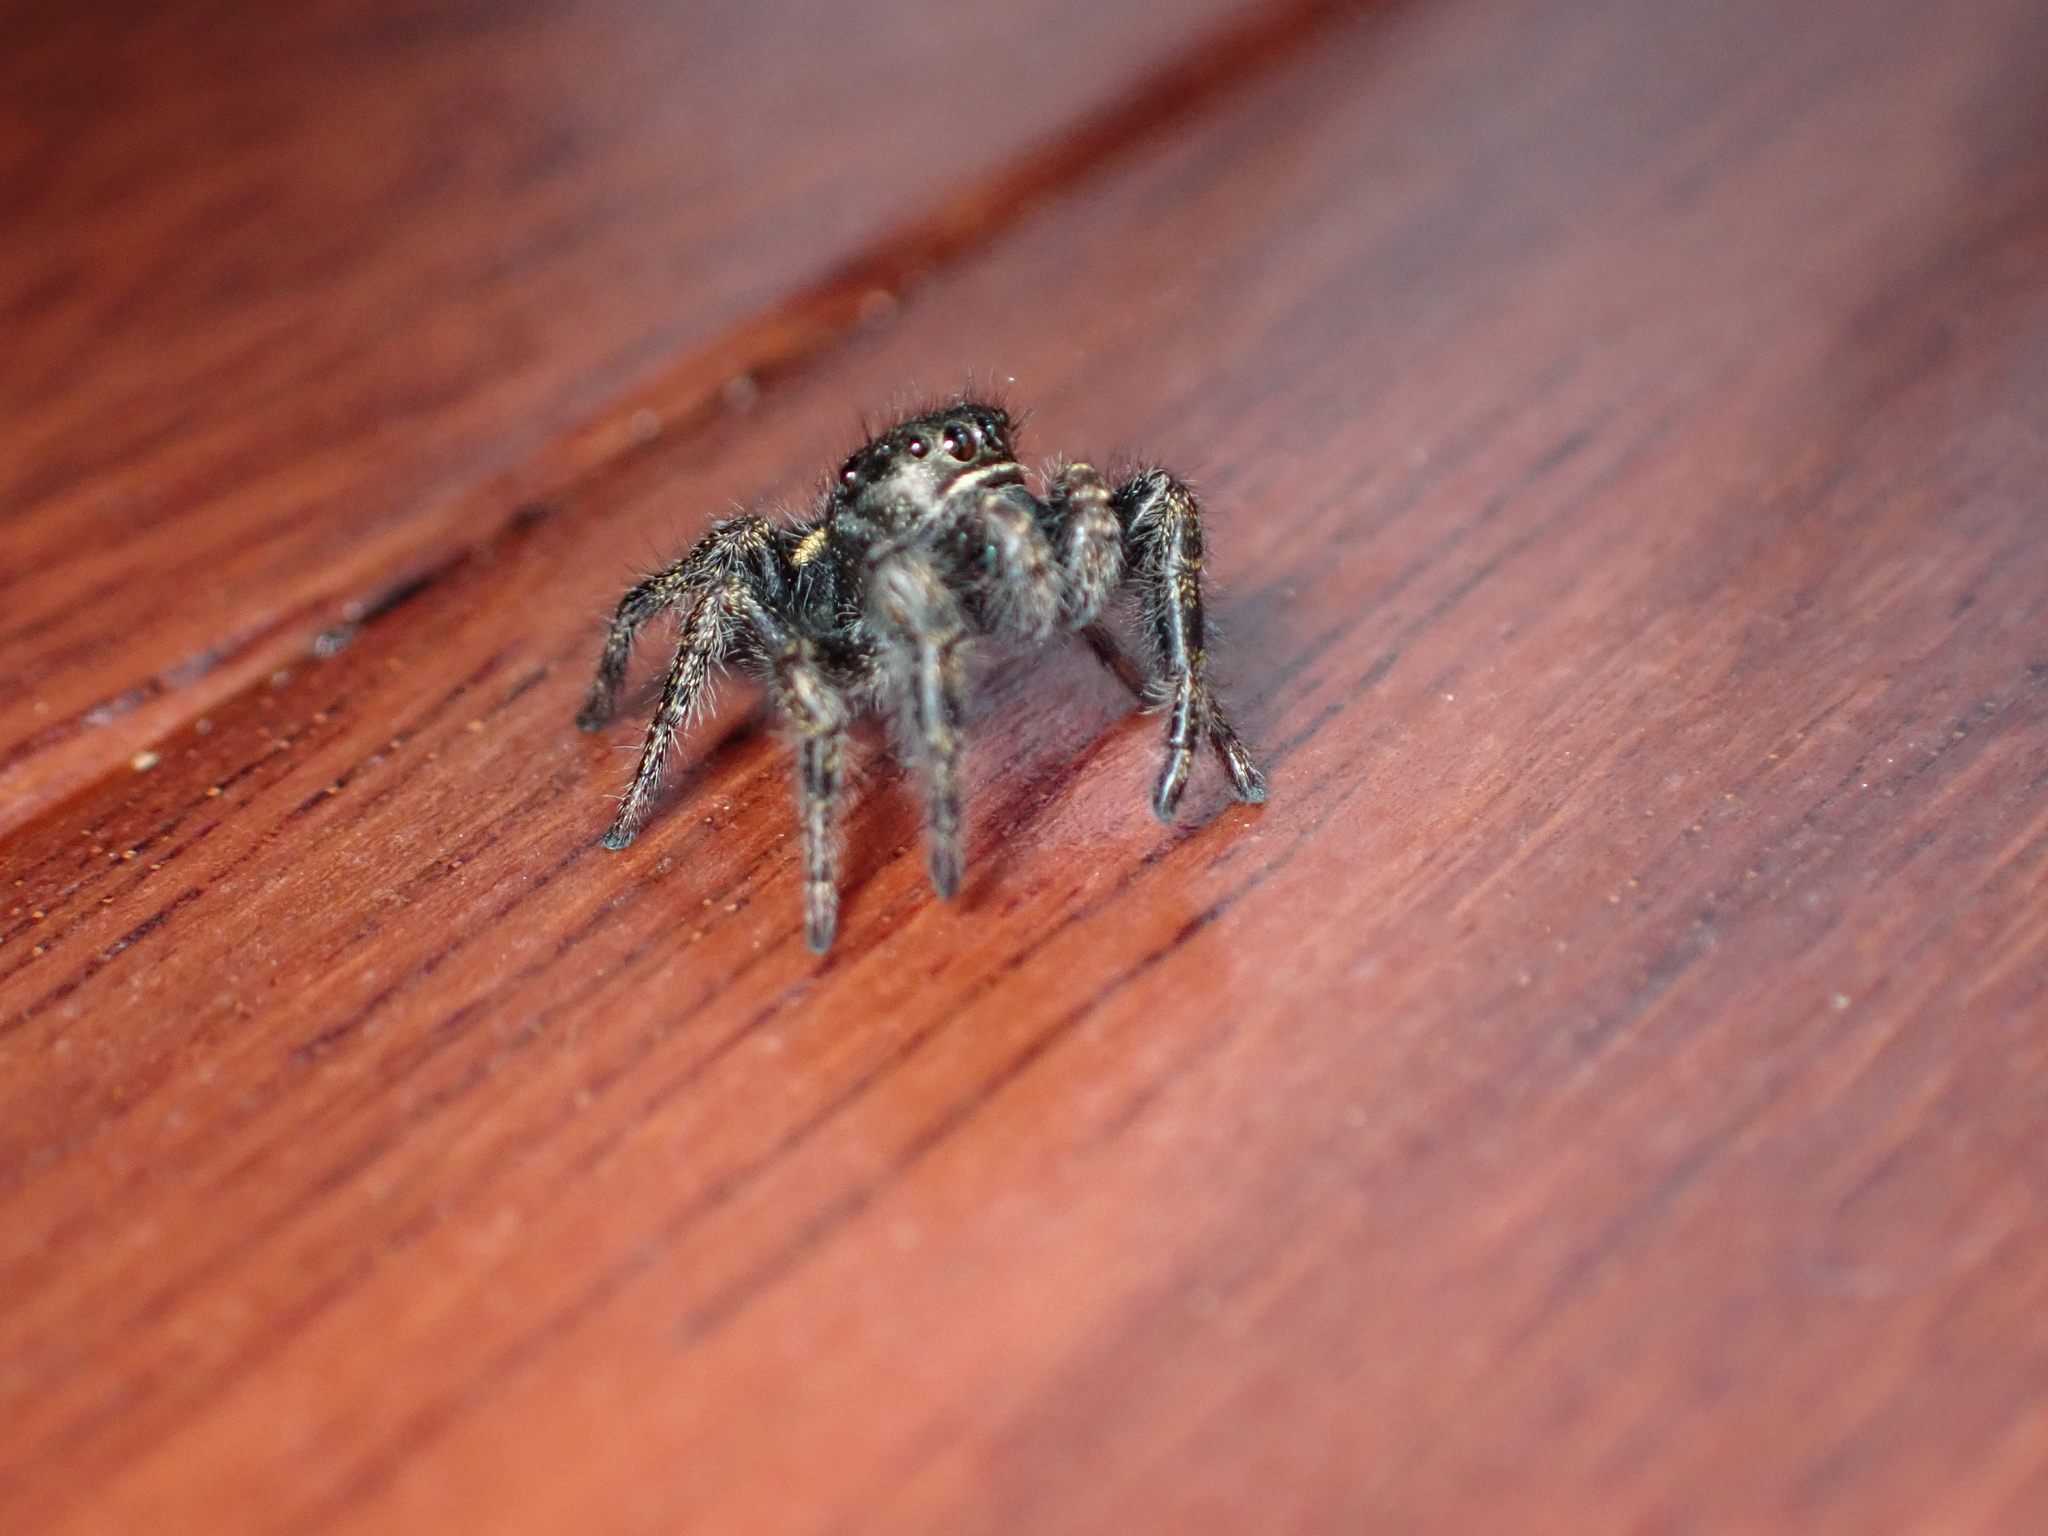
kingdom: Animalia
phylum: Arthropoda
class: Arachnida
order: Araneae
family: Salticidae
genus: Phidippus
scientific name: Phidippus johnsoni
